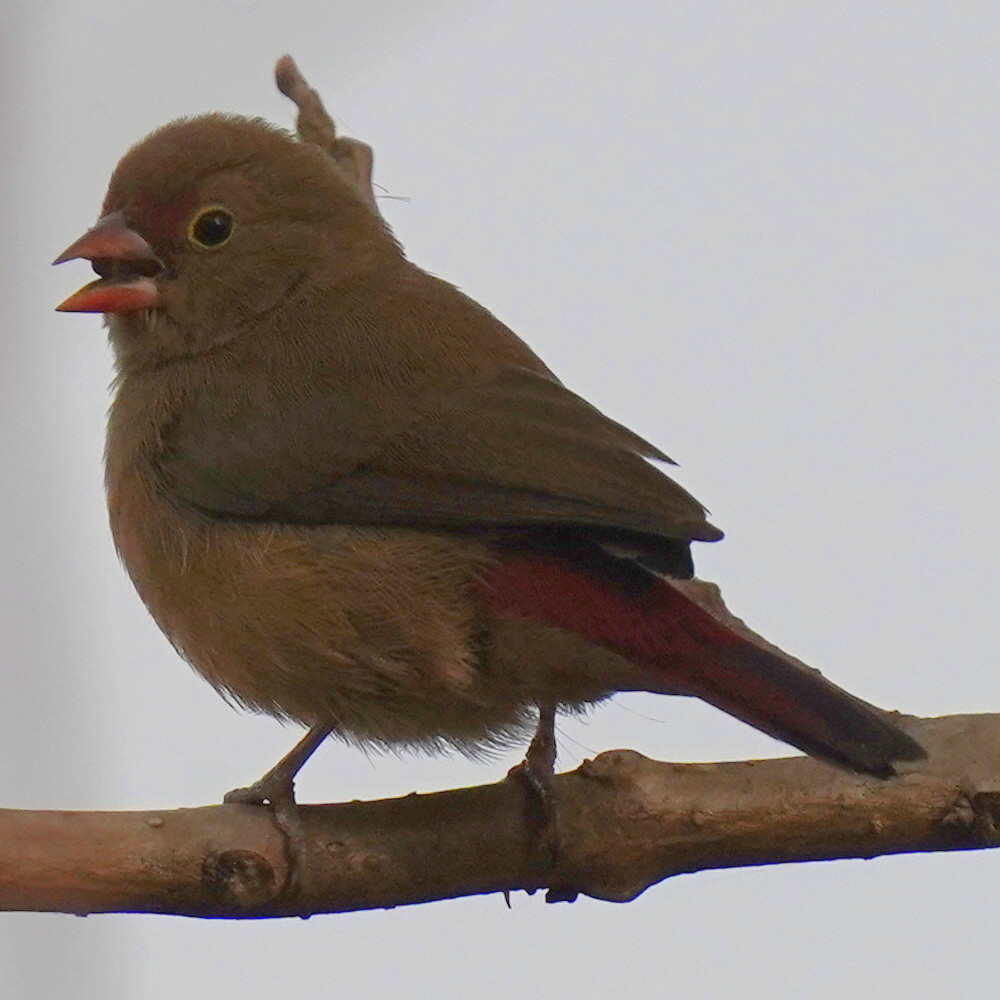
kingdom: Animalia
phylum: Chordata
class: Aves
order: Passeriformes
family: Estrildidae
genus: Lagonosticta
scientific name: Lagonosticta senegala
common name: Red-billed firefinch
